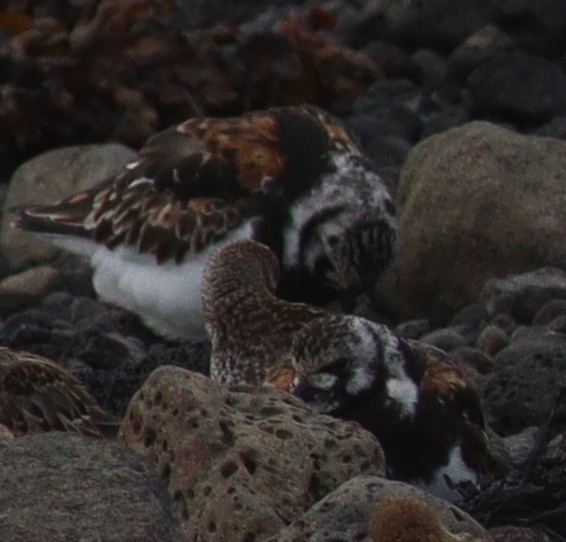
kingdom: Animalia
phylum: Chordata
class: Aves
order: Charadriiformes
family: Scolopacidae
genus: Arenaria
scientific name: Arenaria interpres
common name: Ruddy turnstone
